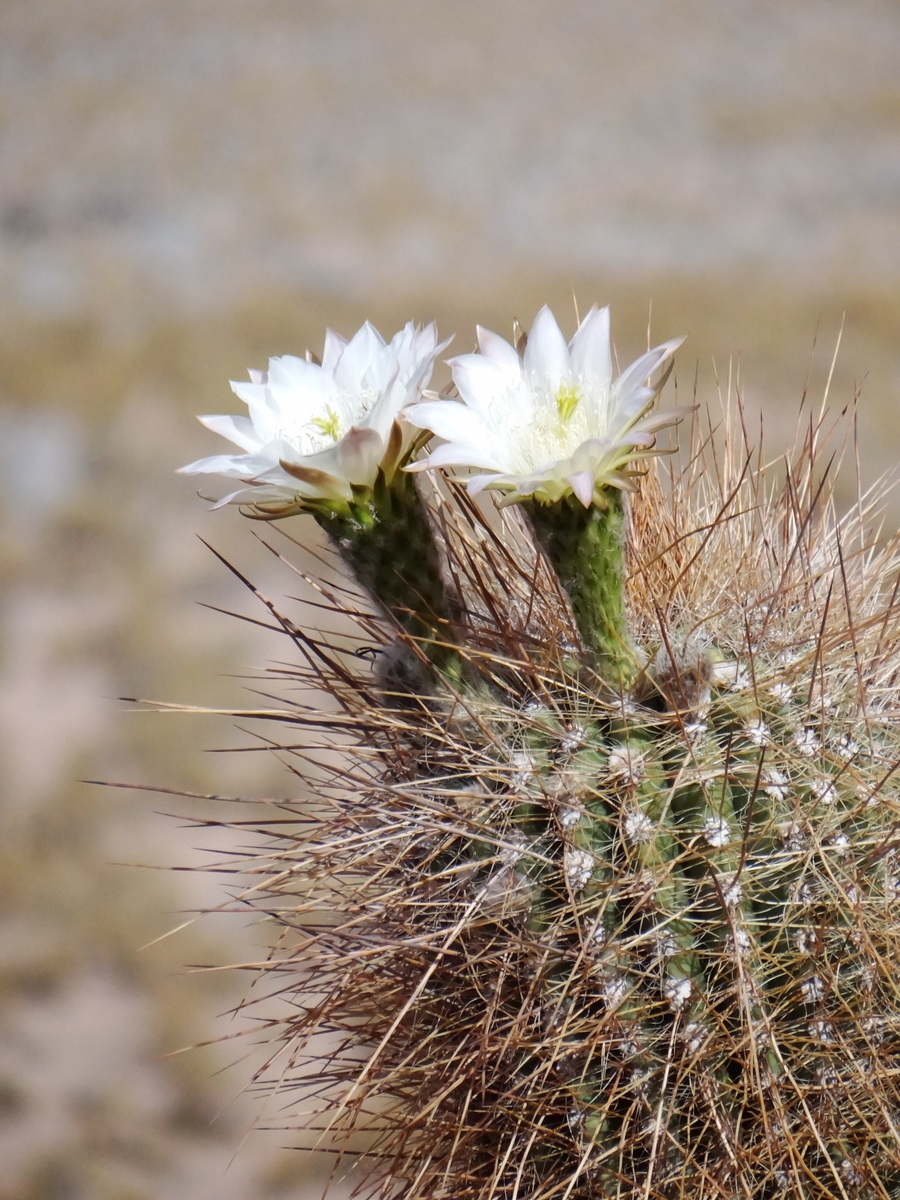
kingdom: Plantae
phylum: Tracheophyta
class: Magnoliopsida
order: Caryophyllales
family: Cactaceae
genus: Leucostele
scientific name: Leucostele atacamensis
